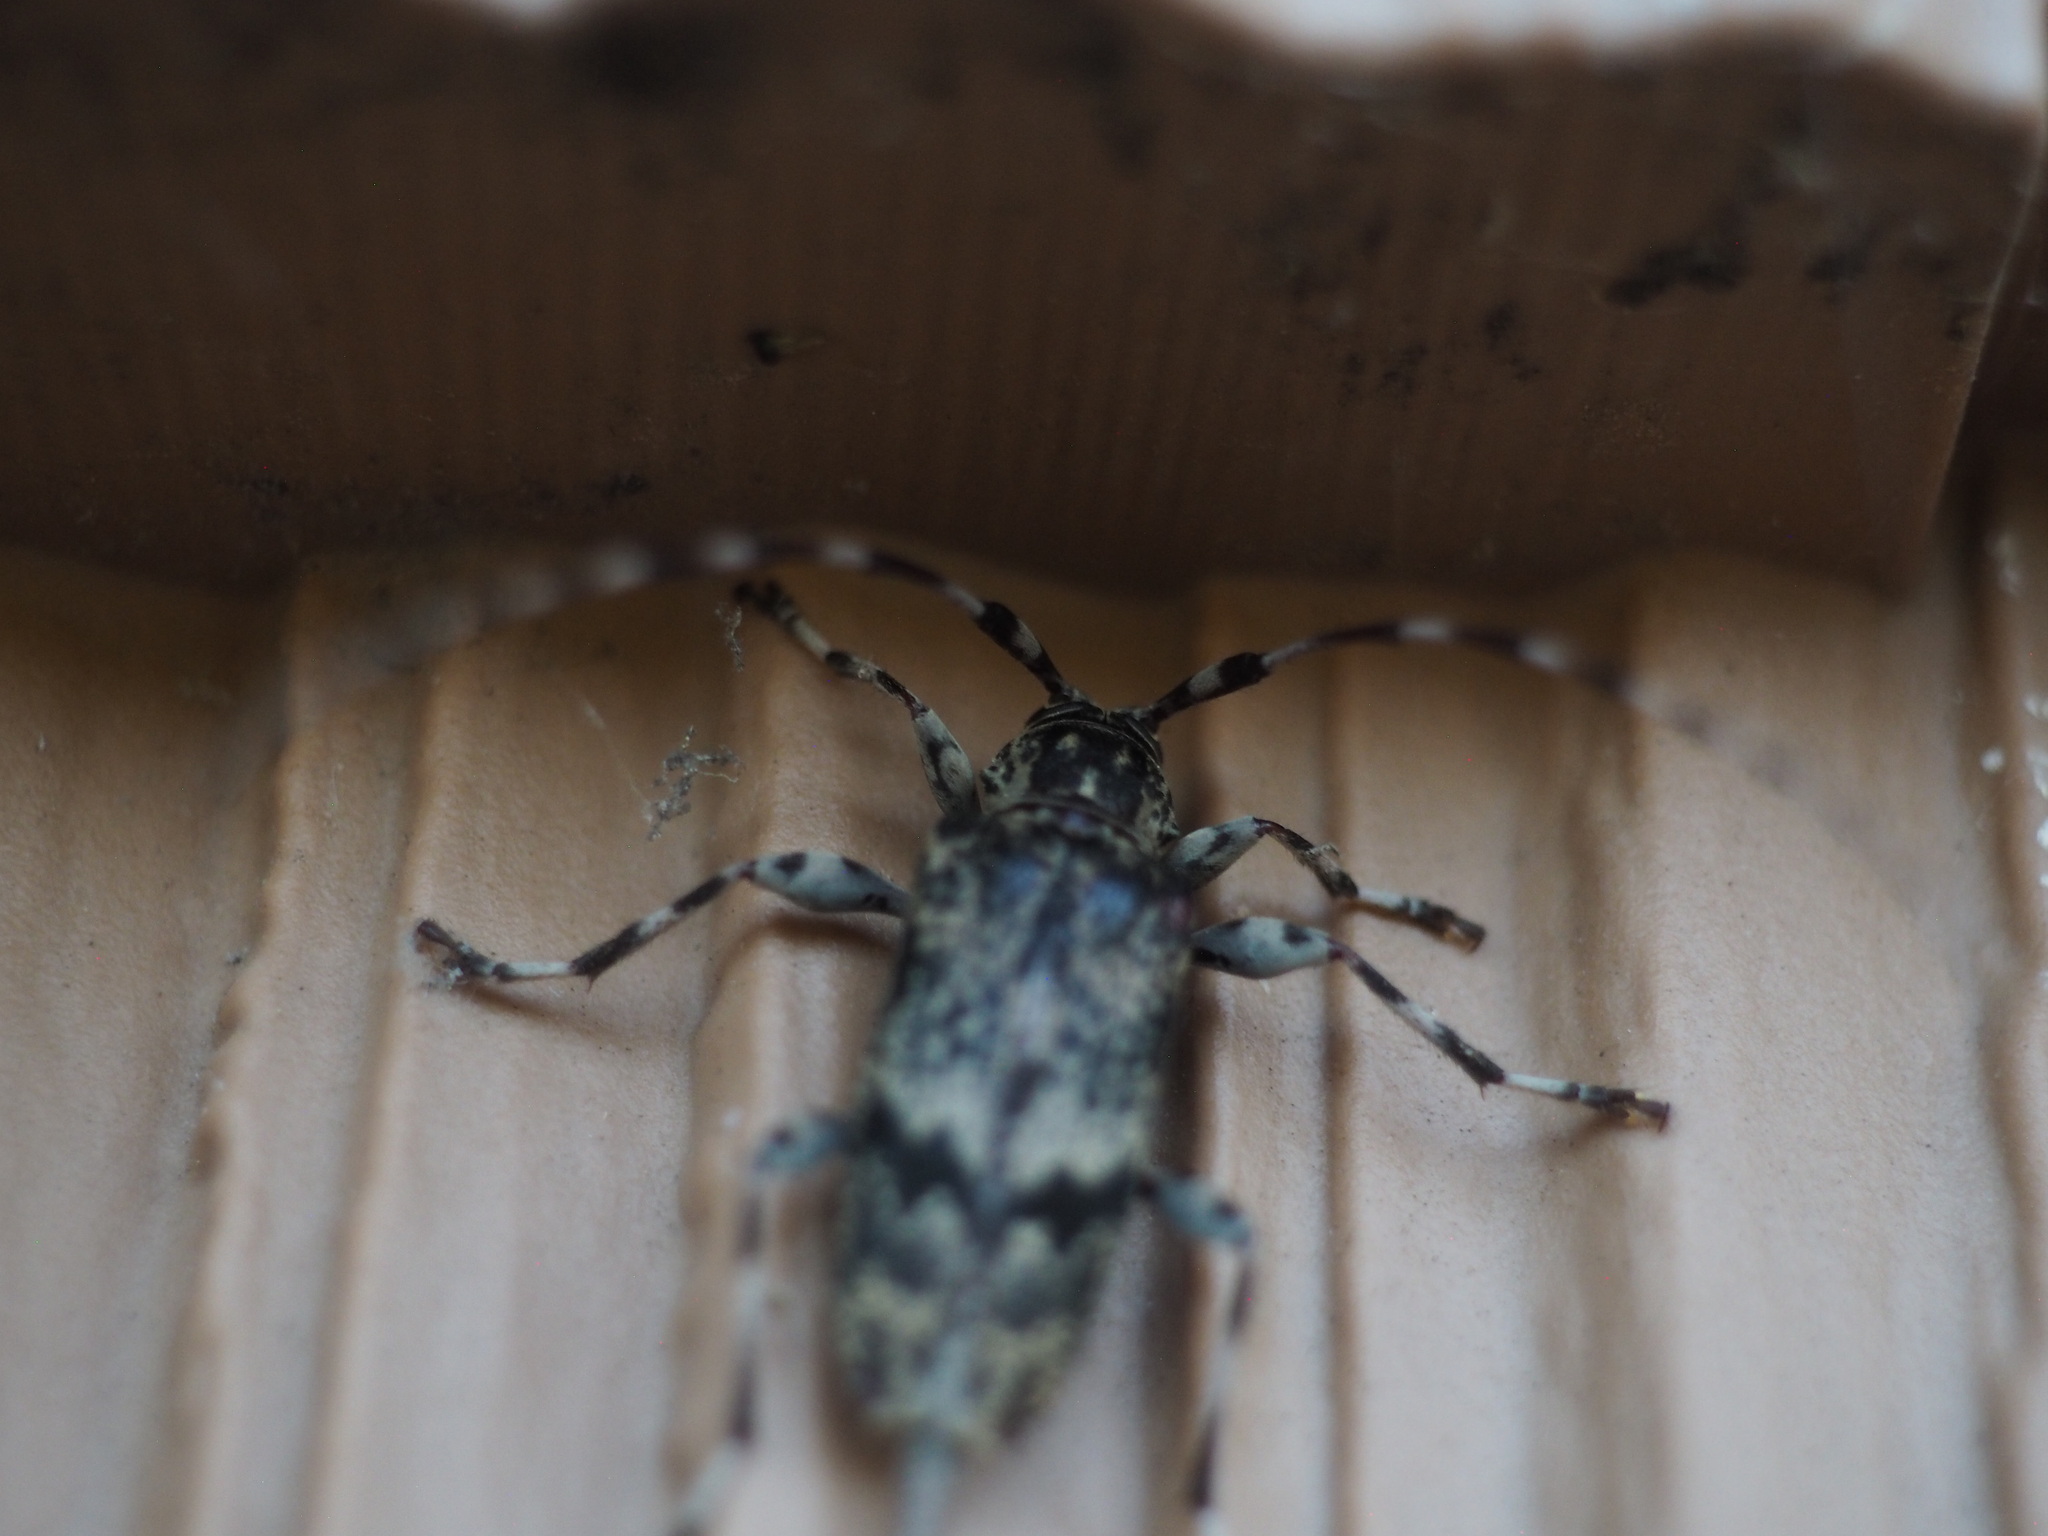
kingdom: Animalia
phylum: Arthropoda
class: Insecta
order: Coleoptera
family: Cerambycidae
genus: Graphisurus
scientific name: Graphisurus fasciatus
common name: Banded graphisurus
